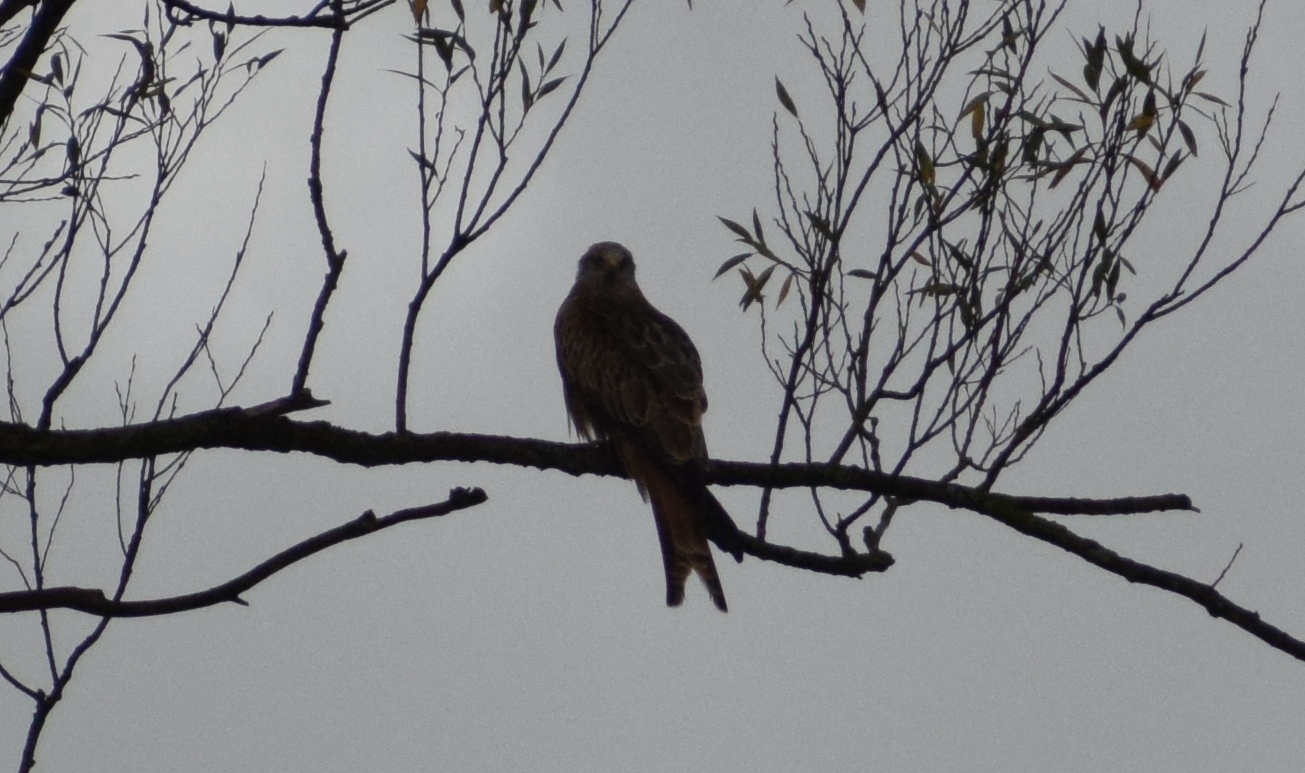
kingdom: Animalia
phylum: Chordata
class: Aves
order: Accipitriformes
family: Accipitridae
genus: Milvus
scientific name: Milvus milvus
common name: Red kite
